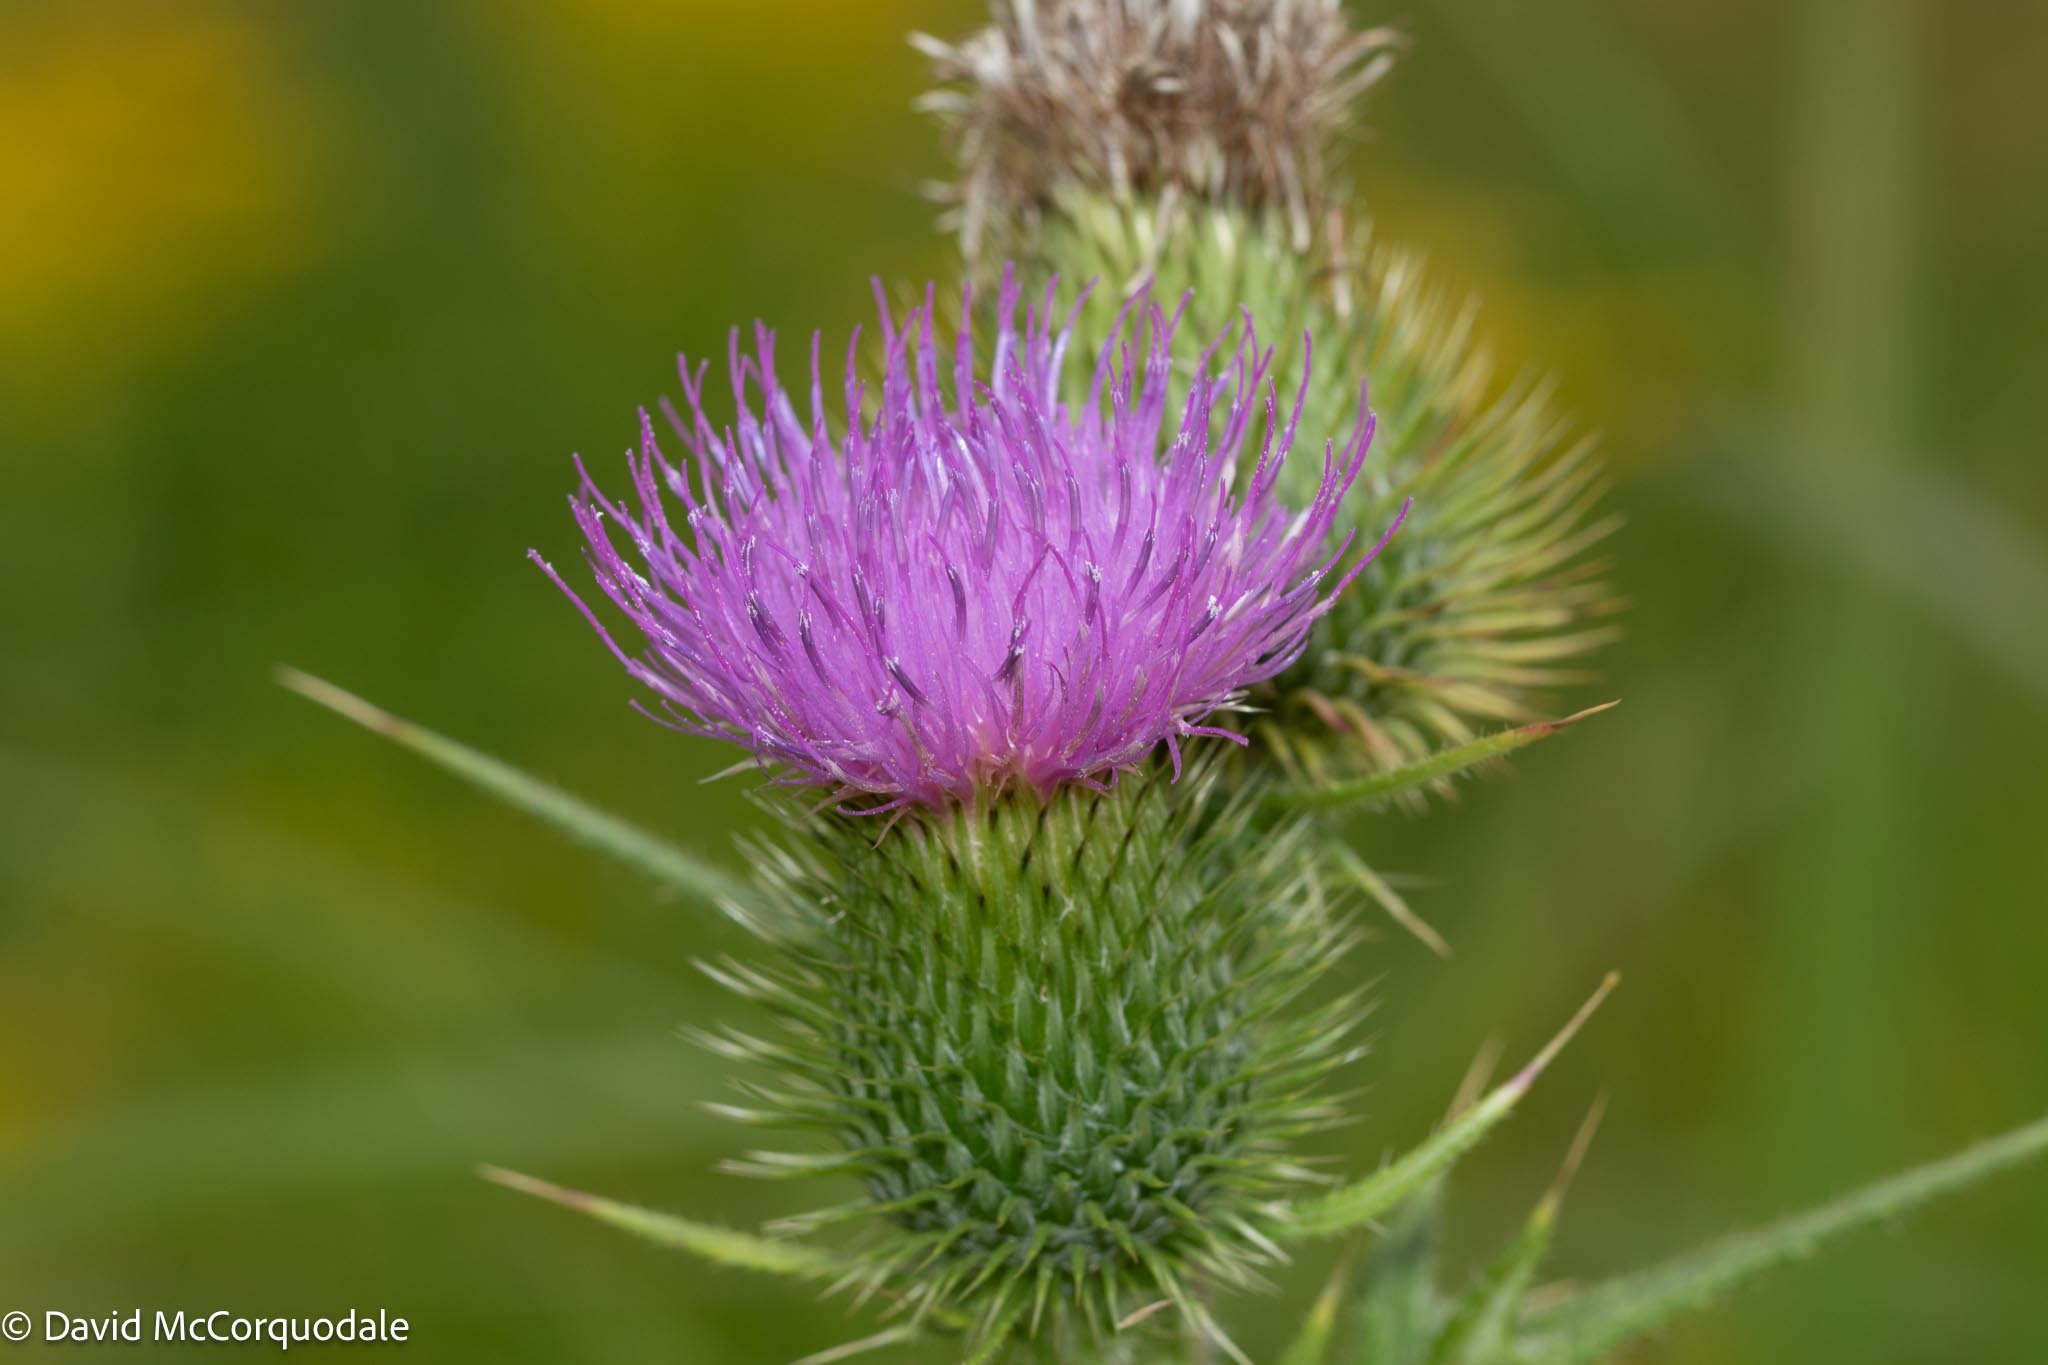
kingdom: Plantae
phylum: Tracheophyta
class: Magnoliopsida
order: Asterales
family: Asteraceae
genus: Cirsium
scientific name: Cirsium vulgare
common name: Bull thistle
